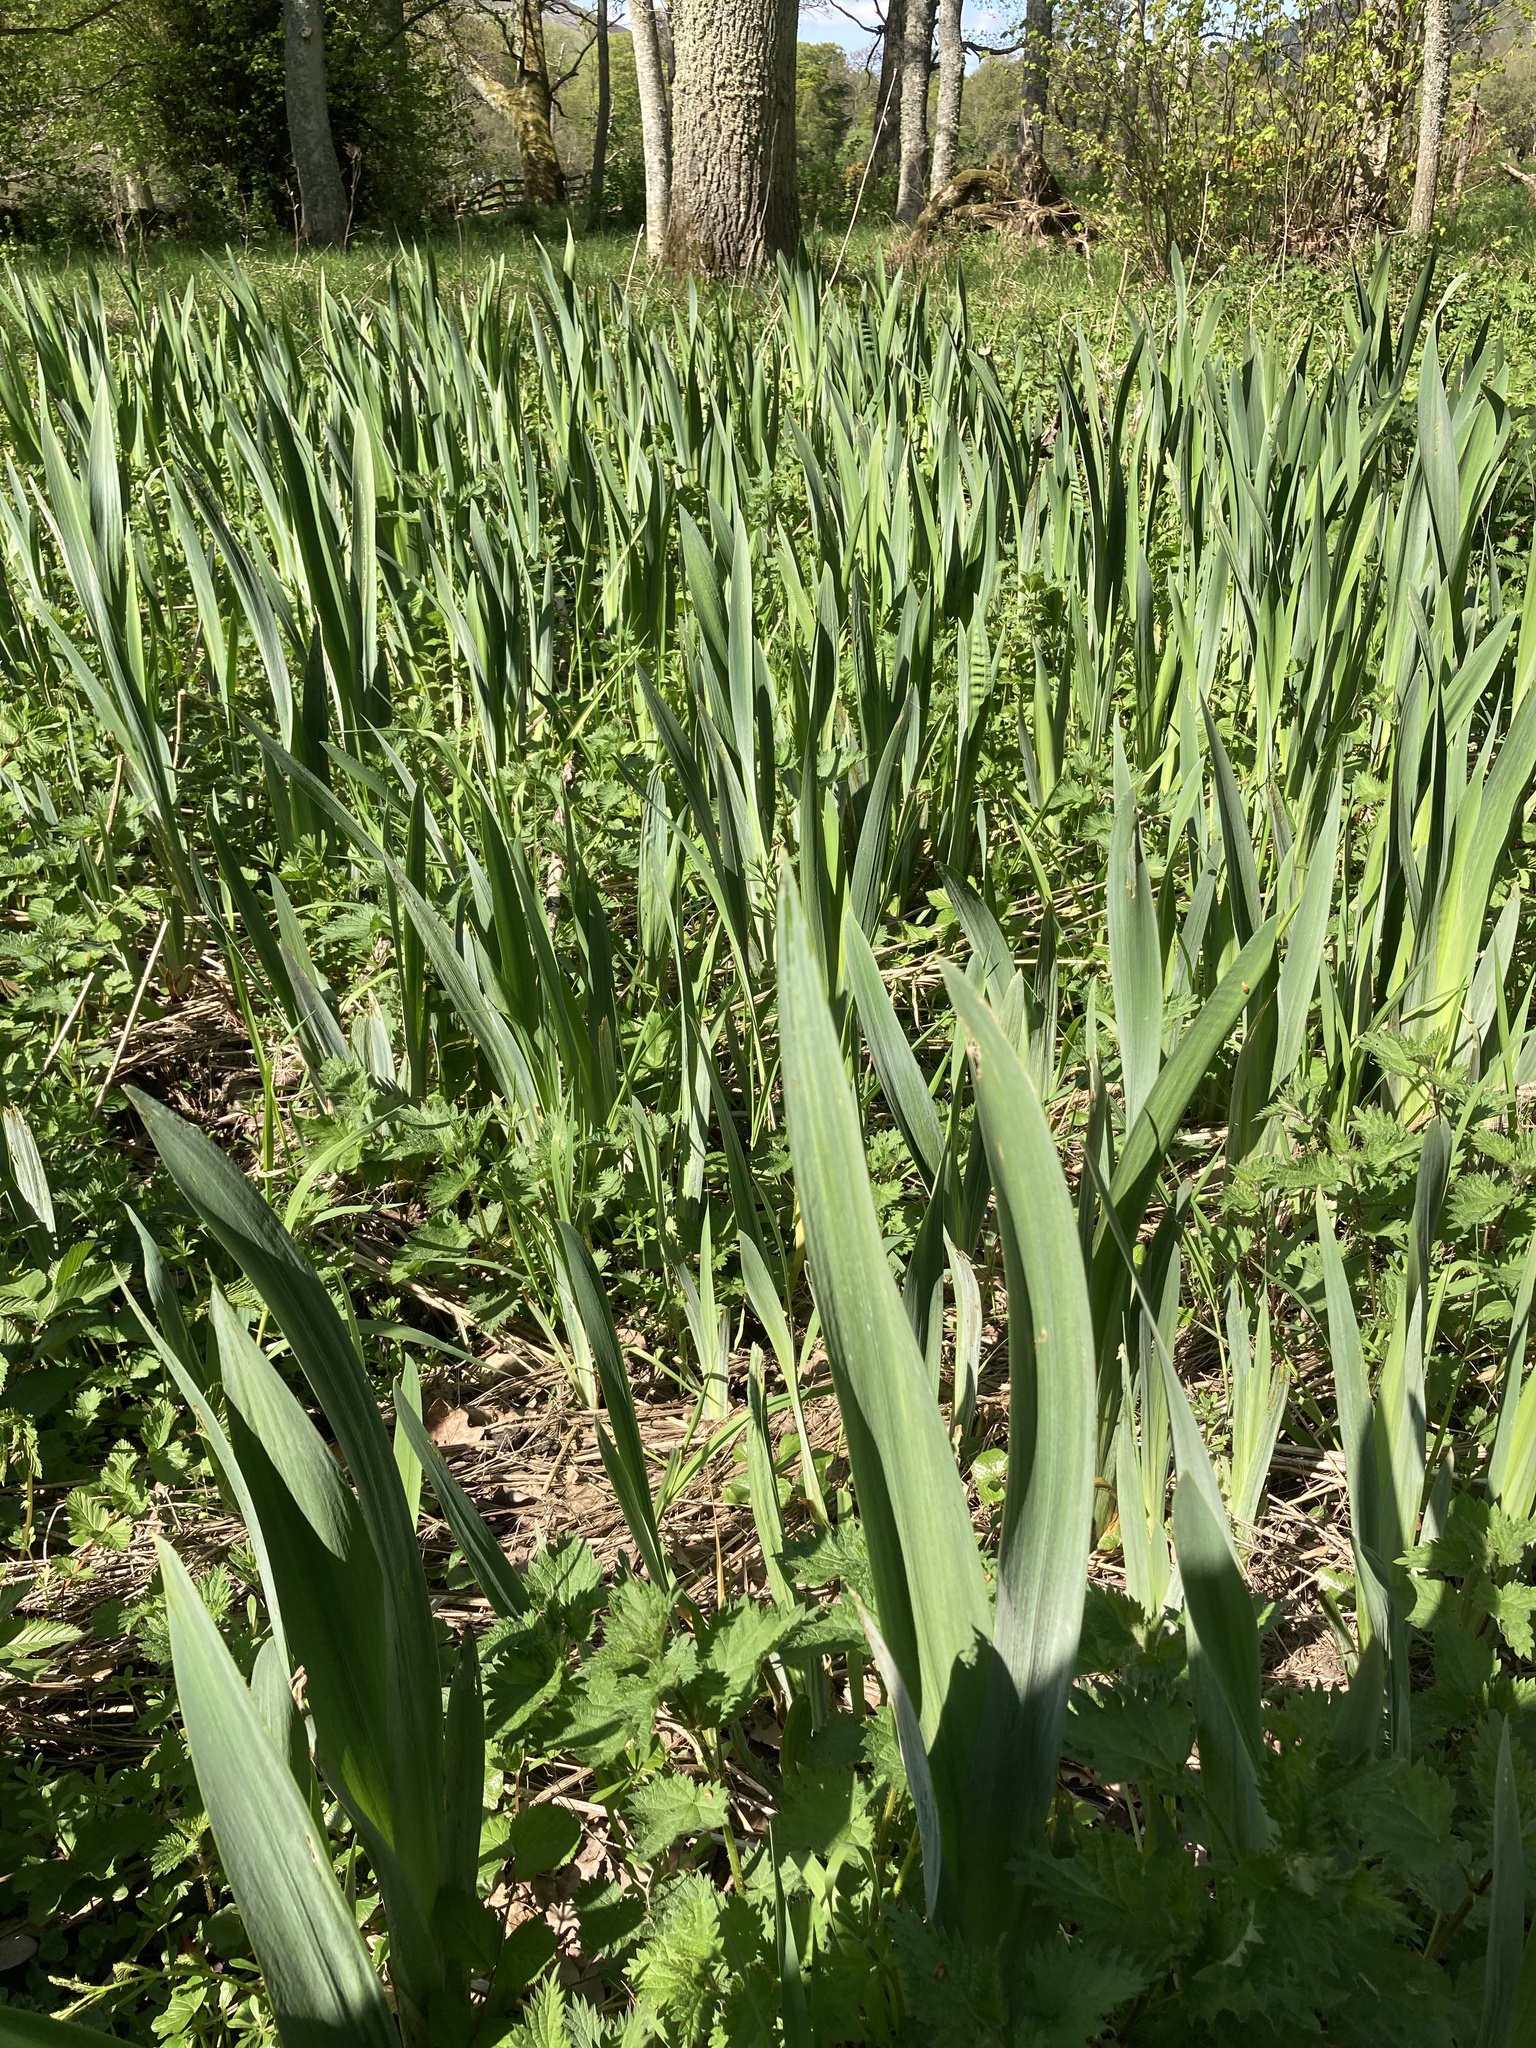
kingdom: Plantae
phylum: Tracheophyta
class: Liliopsida
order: Asparagales
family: Iridaceae
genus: Iris
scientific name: Iris pseudacorus
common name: Yellow flag
